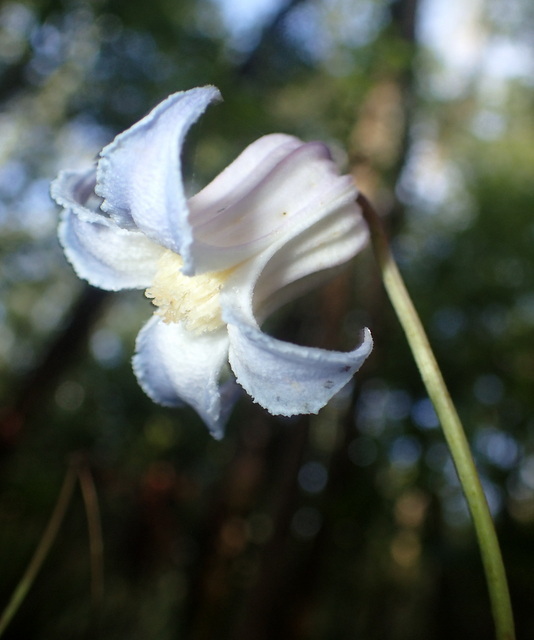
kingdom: Plantae
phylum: Tracheophyta
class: Magnoliopsida
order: Ranunculales
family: Ranunculaceae
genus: Clematis
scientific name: Clematis crispa
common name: Curly clematis
